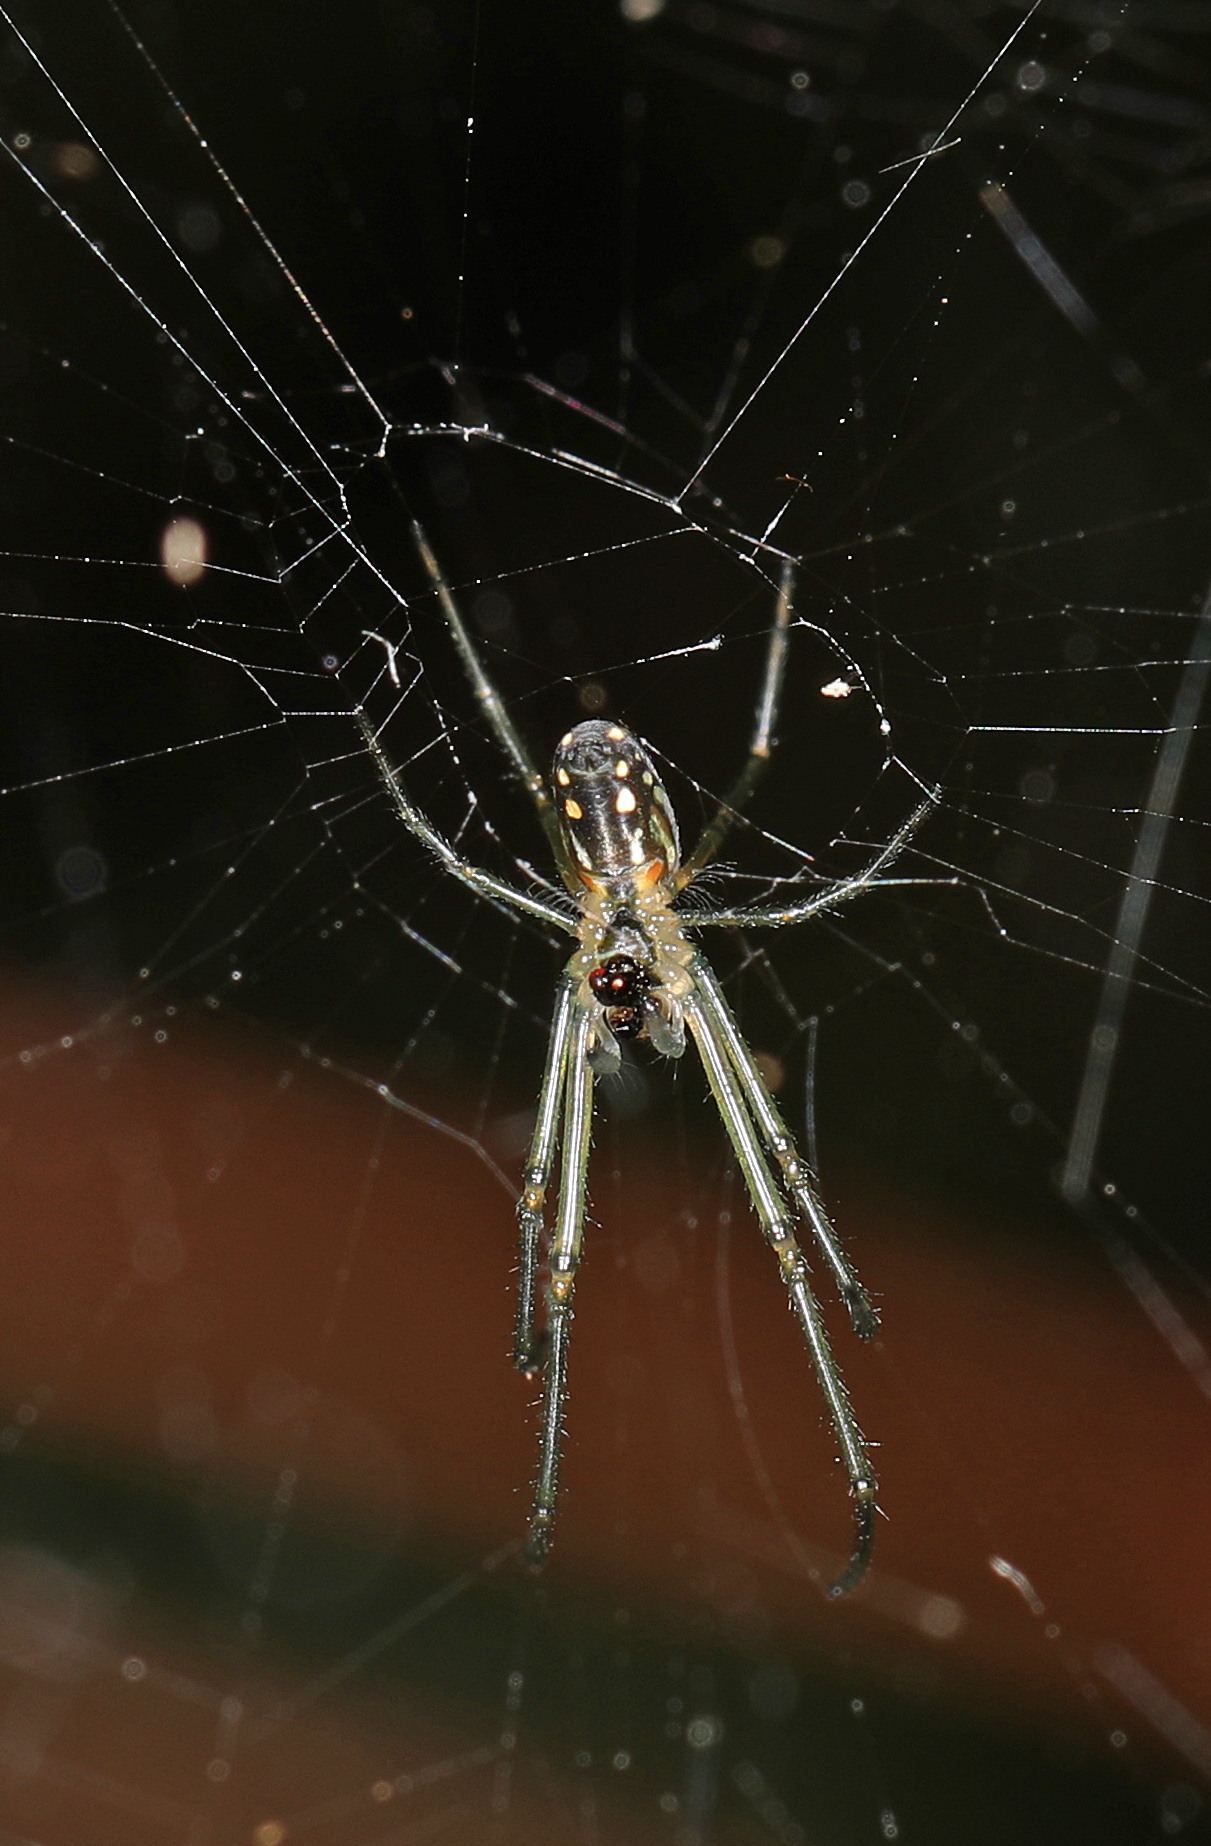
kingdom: Animalia
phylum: Arthropoda
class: Arachnida
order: Araneae
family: Tetragnathidae
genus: Leucauge
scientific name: Leucauge argyra
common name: Longjawed orb weavers
